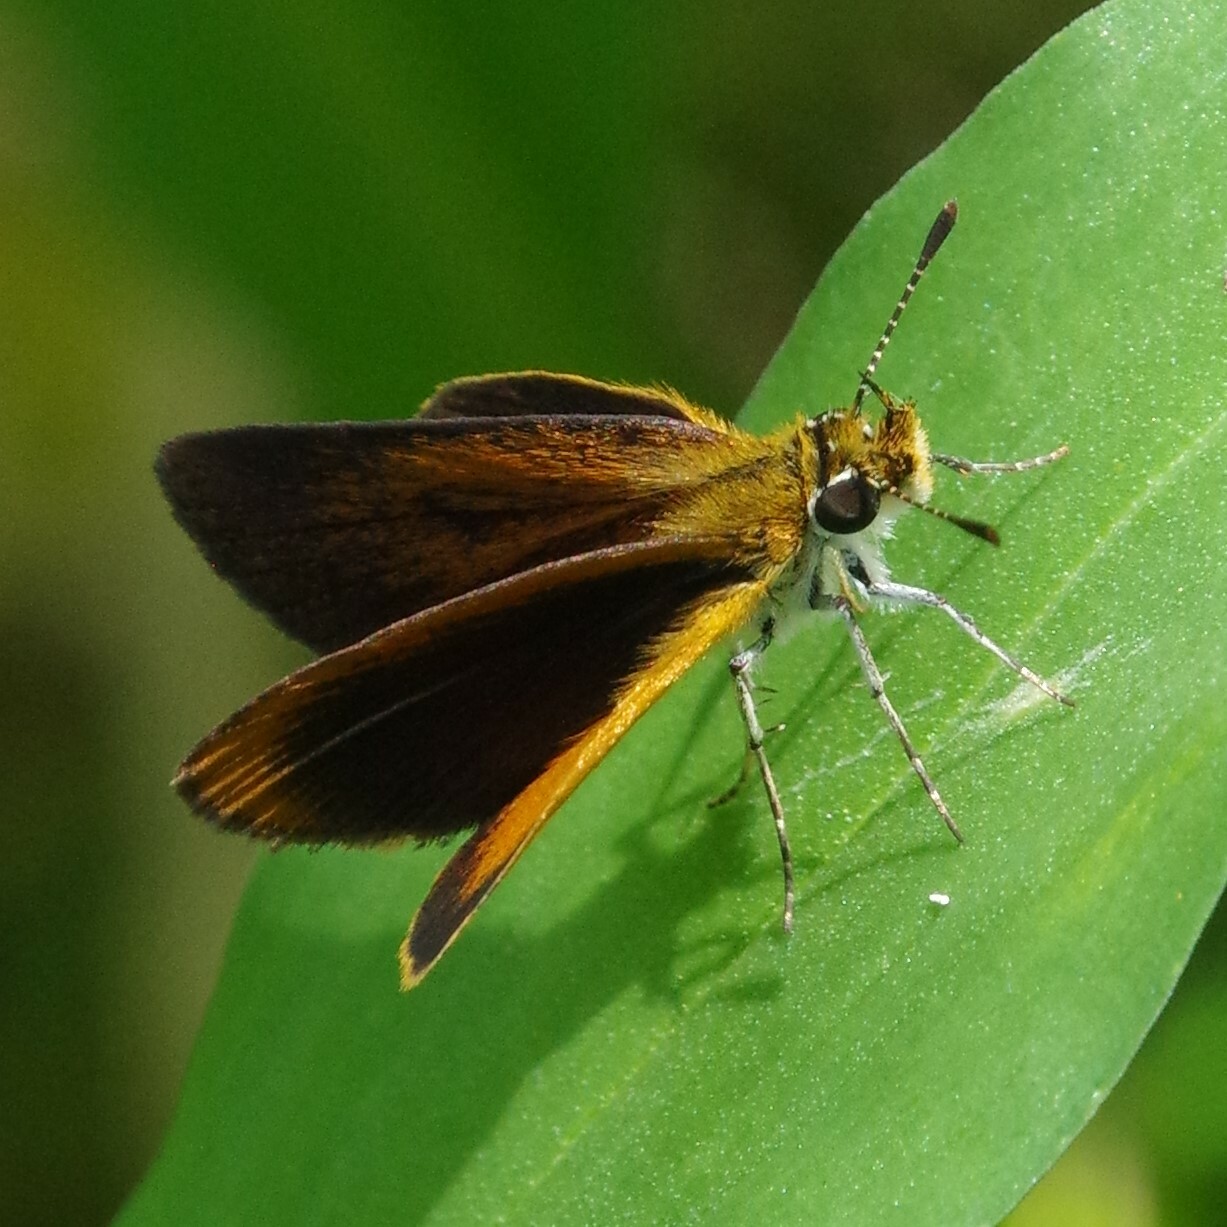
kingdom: Animalia
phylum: Arthropoda
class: Insecta
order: Lepidoptera
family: Hesperiidae
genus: Ancyloxypha
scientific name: Ancyloxypha numitor
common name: Least skipper
